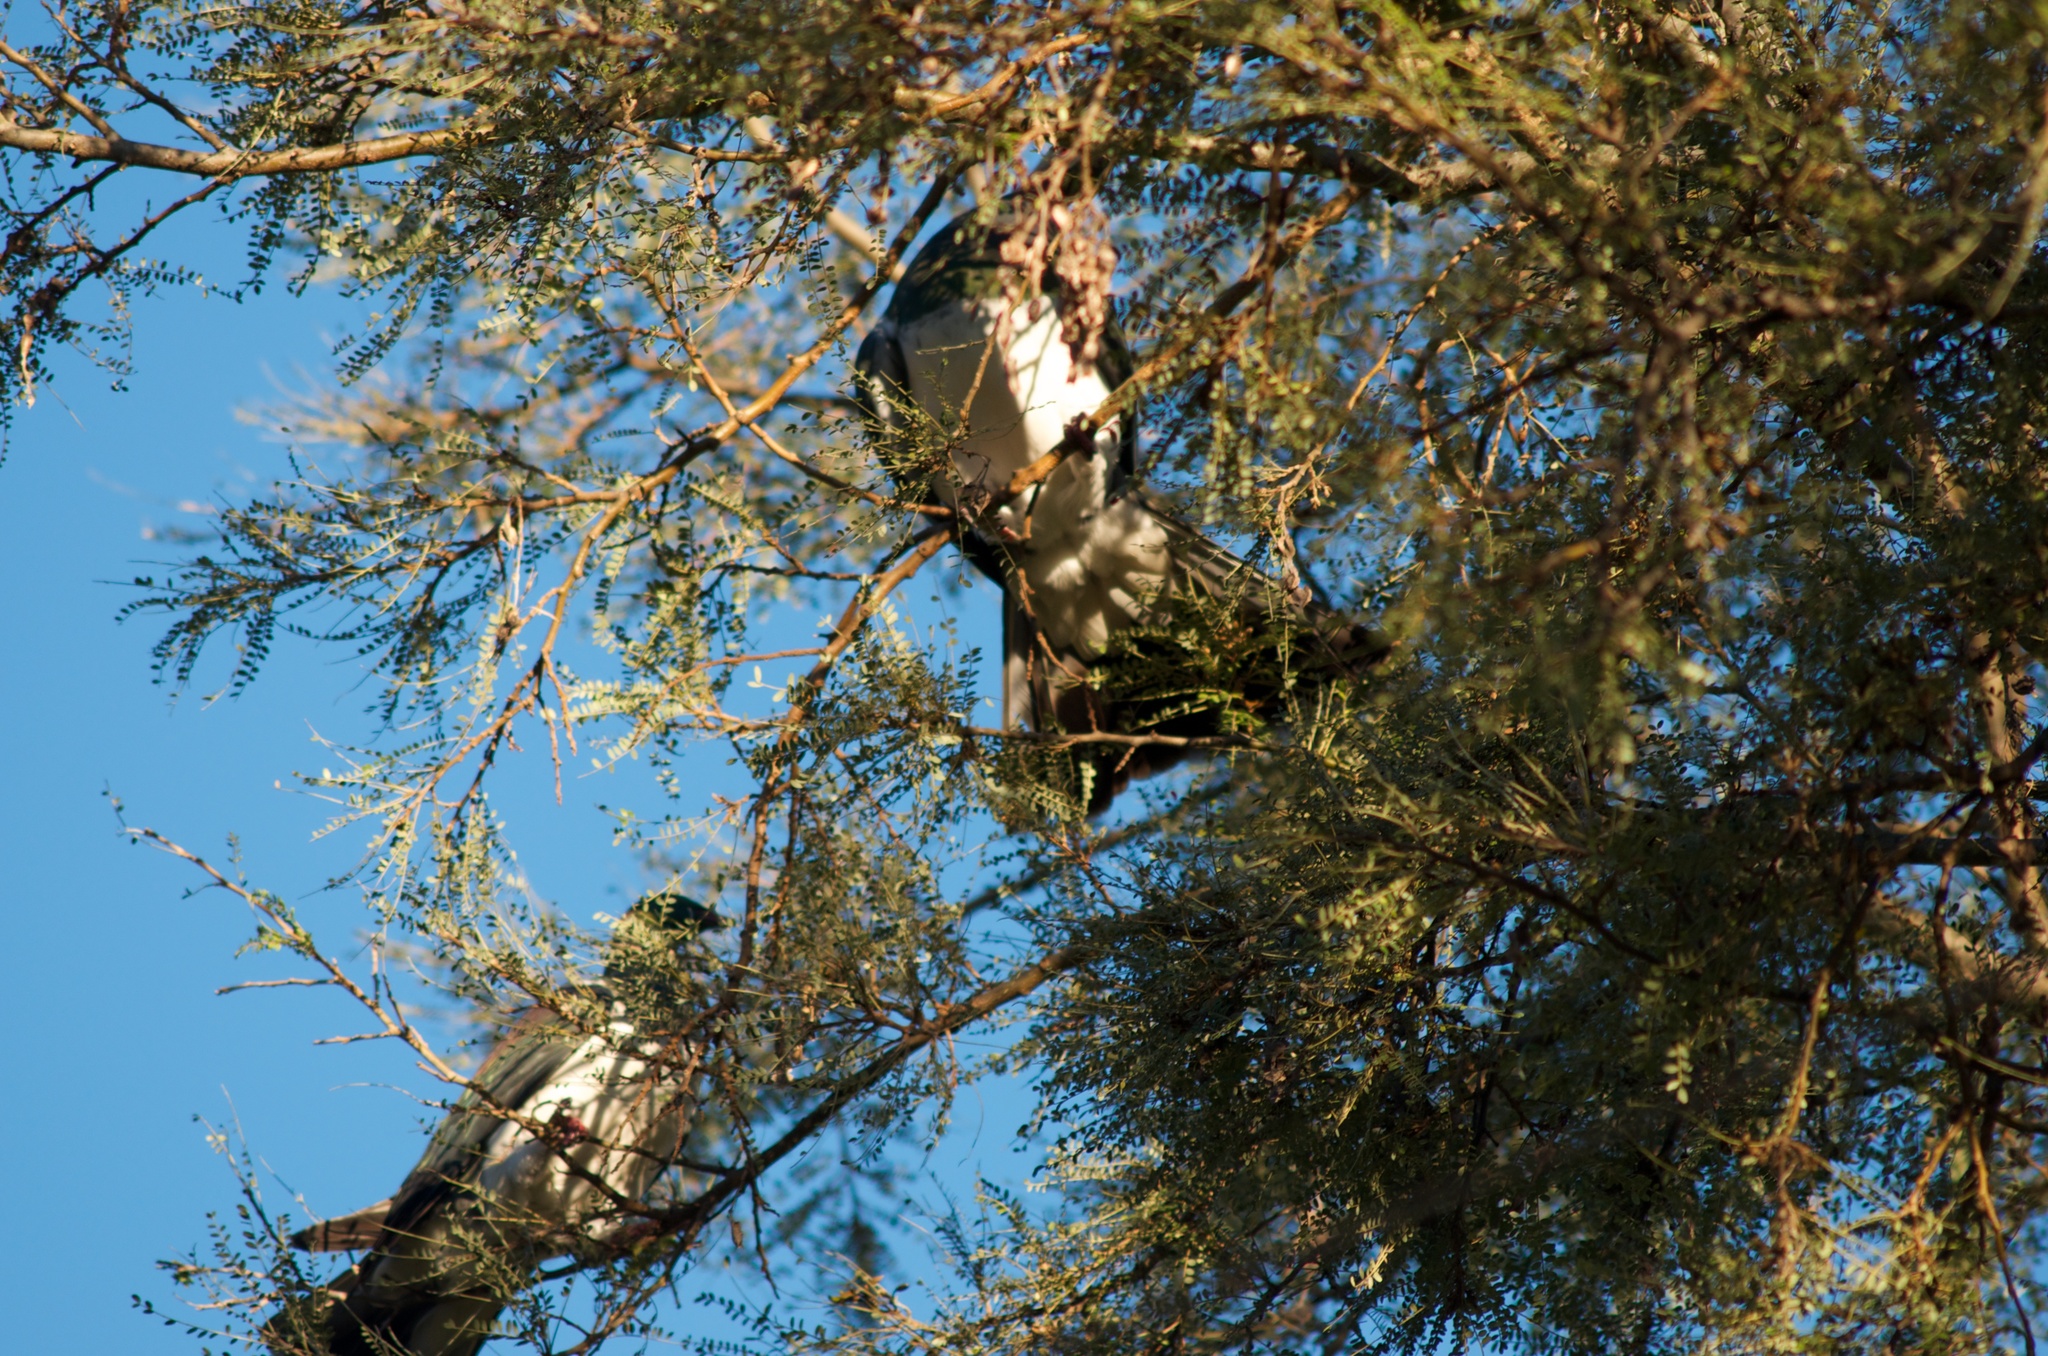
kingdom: Animalia
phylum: Chordata
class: Aves
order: Columbiformes
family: Columbidae
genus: Hemiphaga
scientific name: Hemiphaga novaeseelandiae
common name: New zealand pigeon
